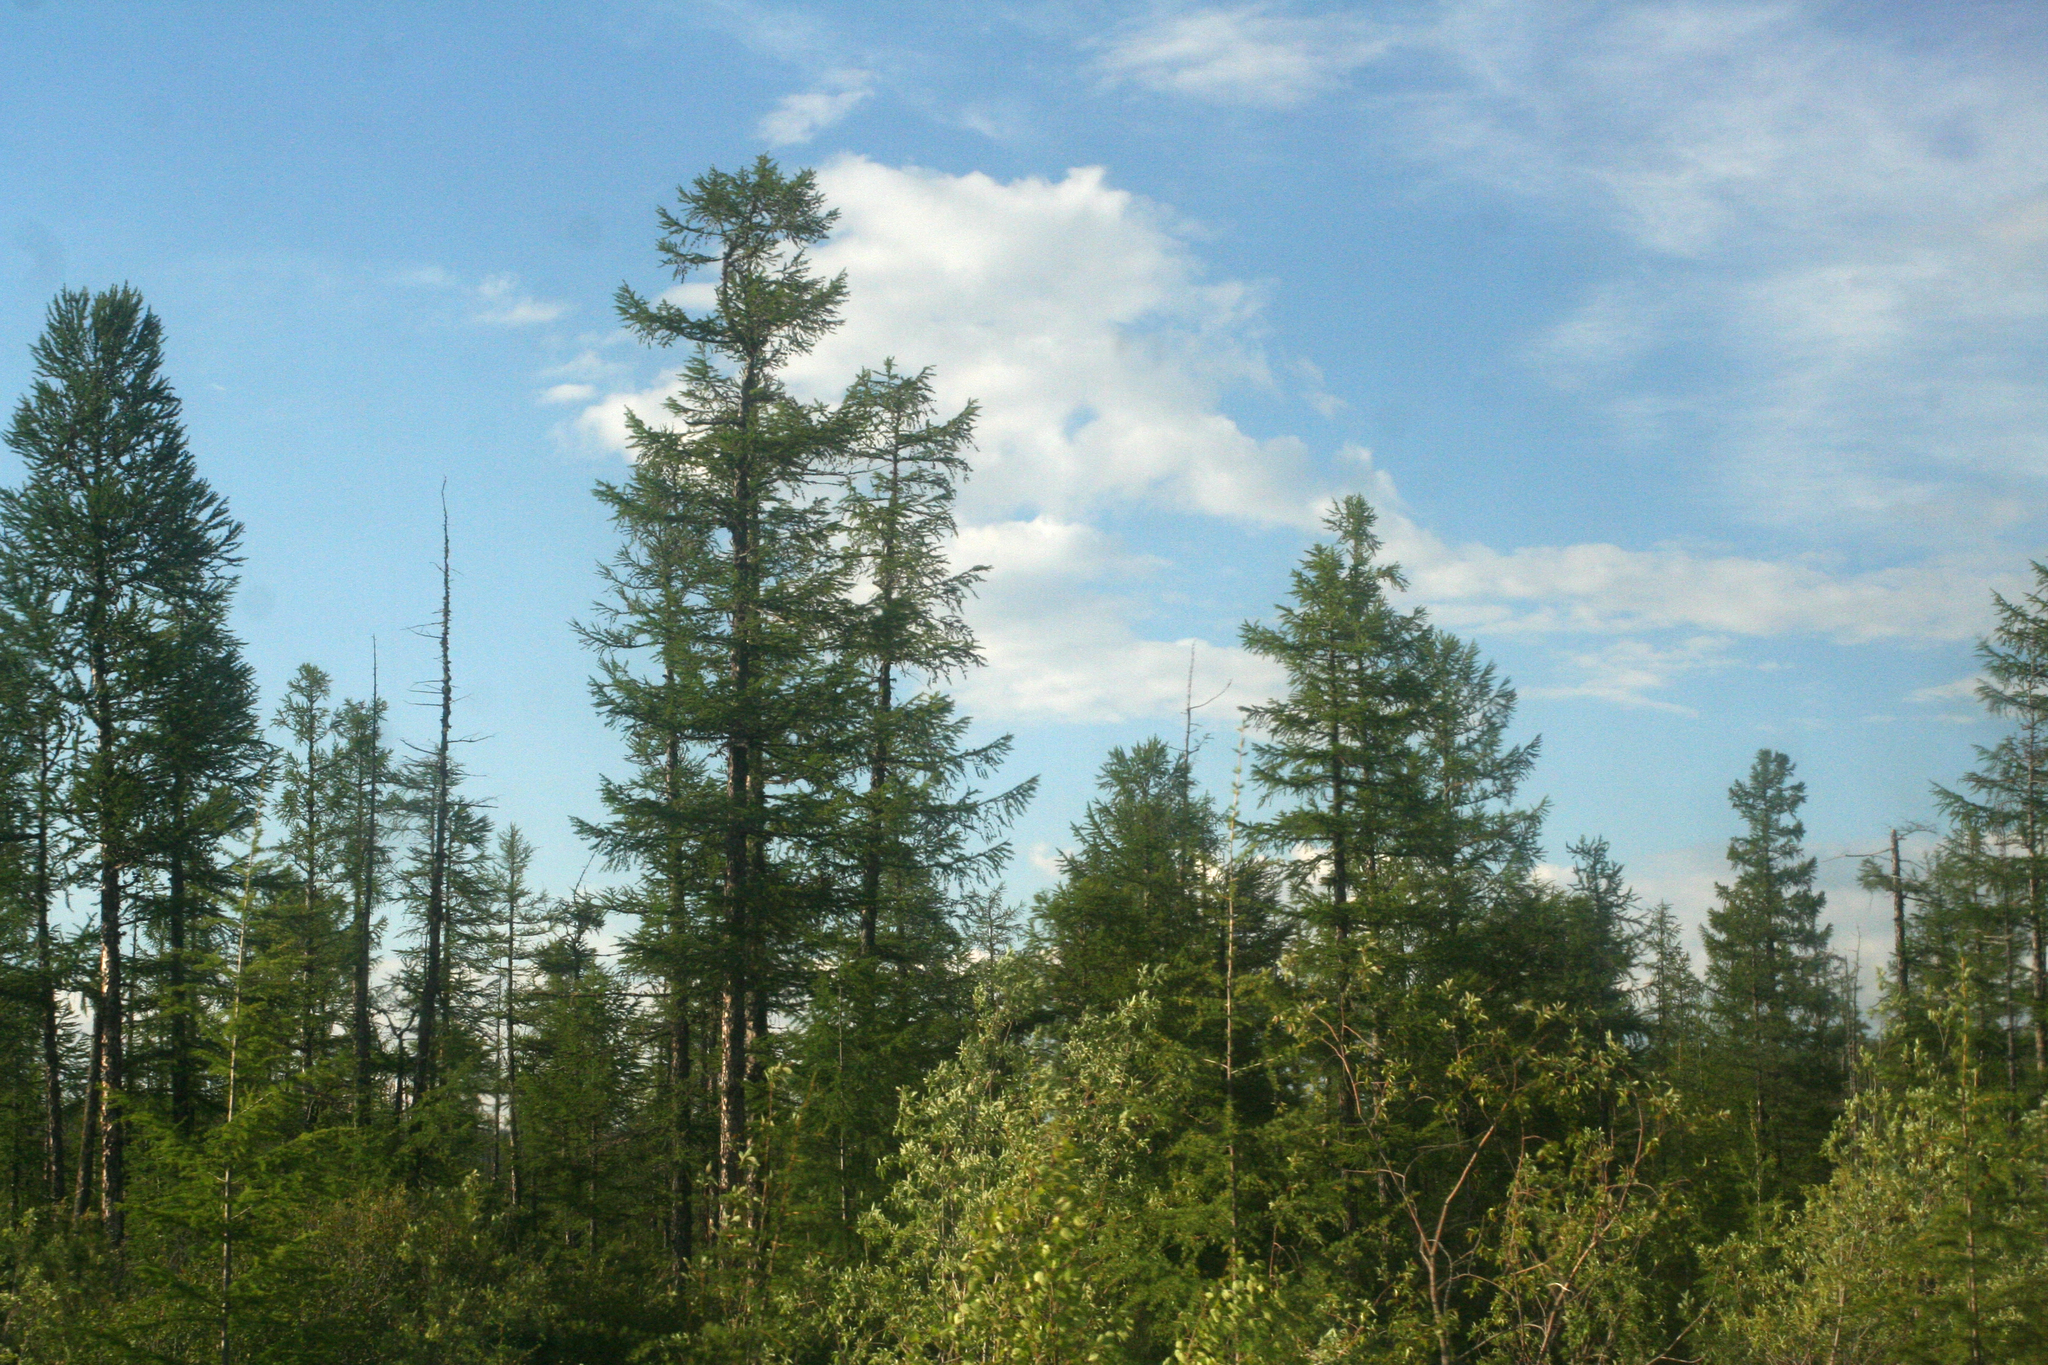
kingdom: Plantae
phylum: Tracheophyta
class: Pinopsida
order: Pinales
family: Pinaceae
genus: Larix
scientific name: Larix gmelinii
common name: Dahurian larch
